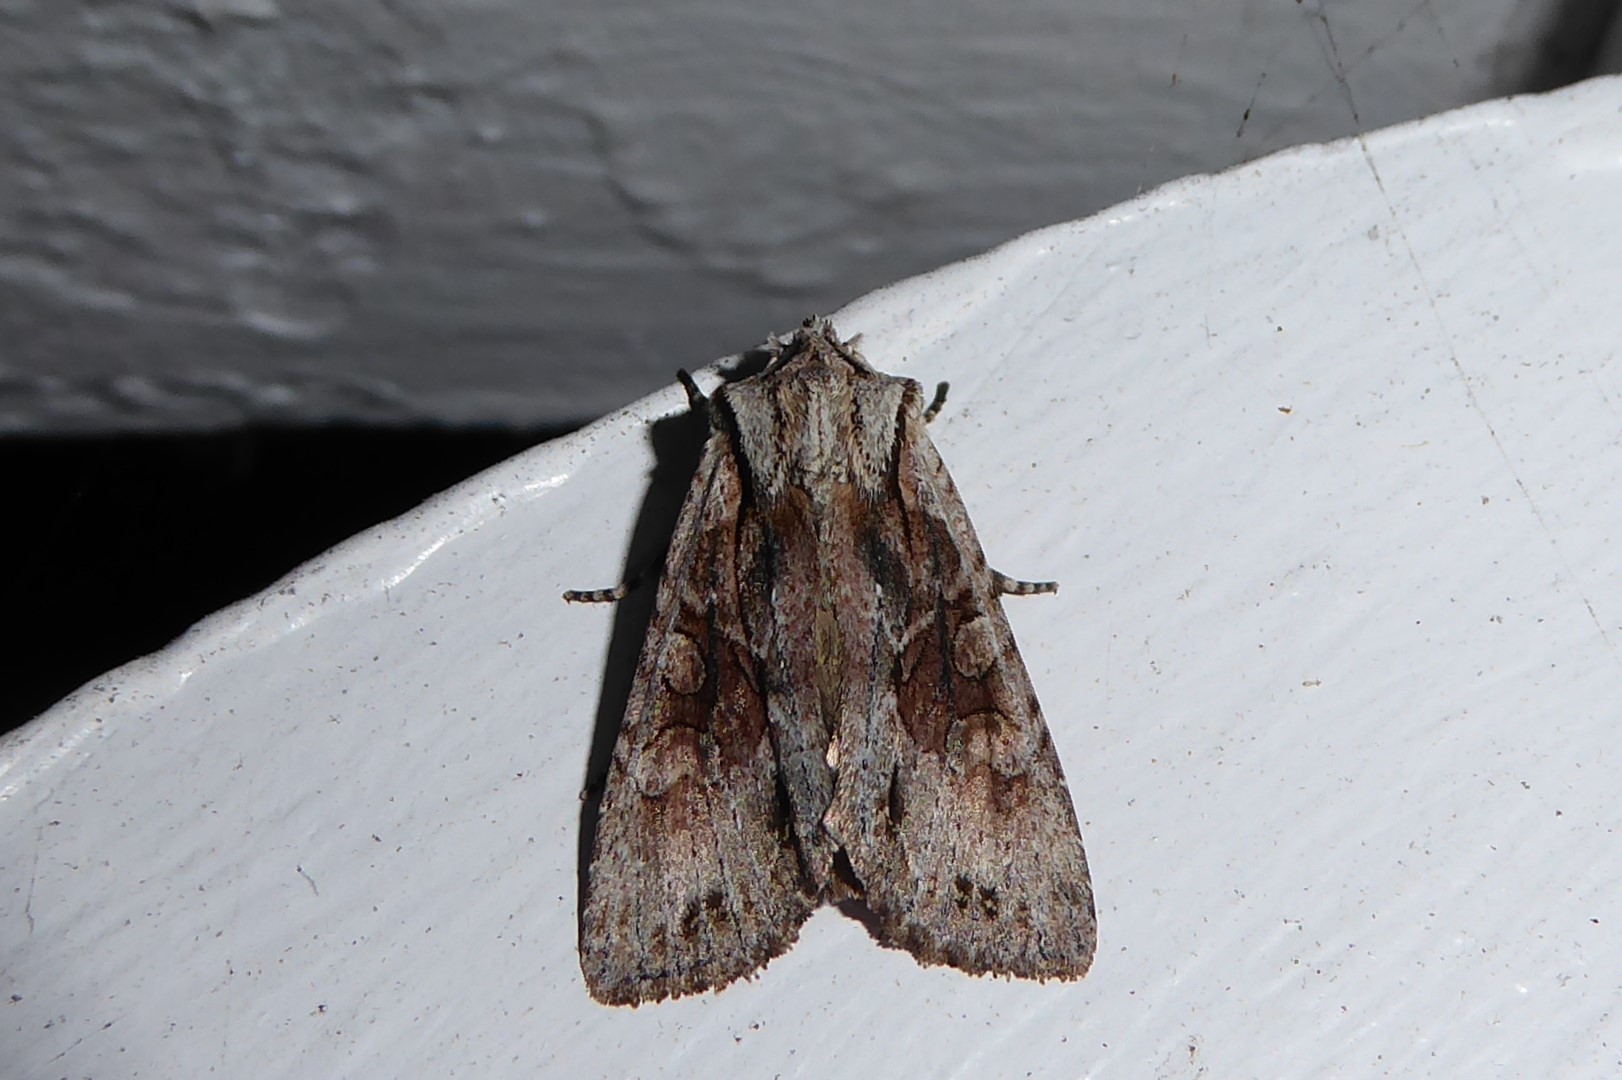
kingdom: Animalia
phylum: Arthropoda
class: Insecta
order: Lepidoptera
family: Noctuidae
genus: Ichneutica
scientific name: Ichneutica mutans
